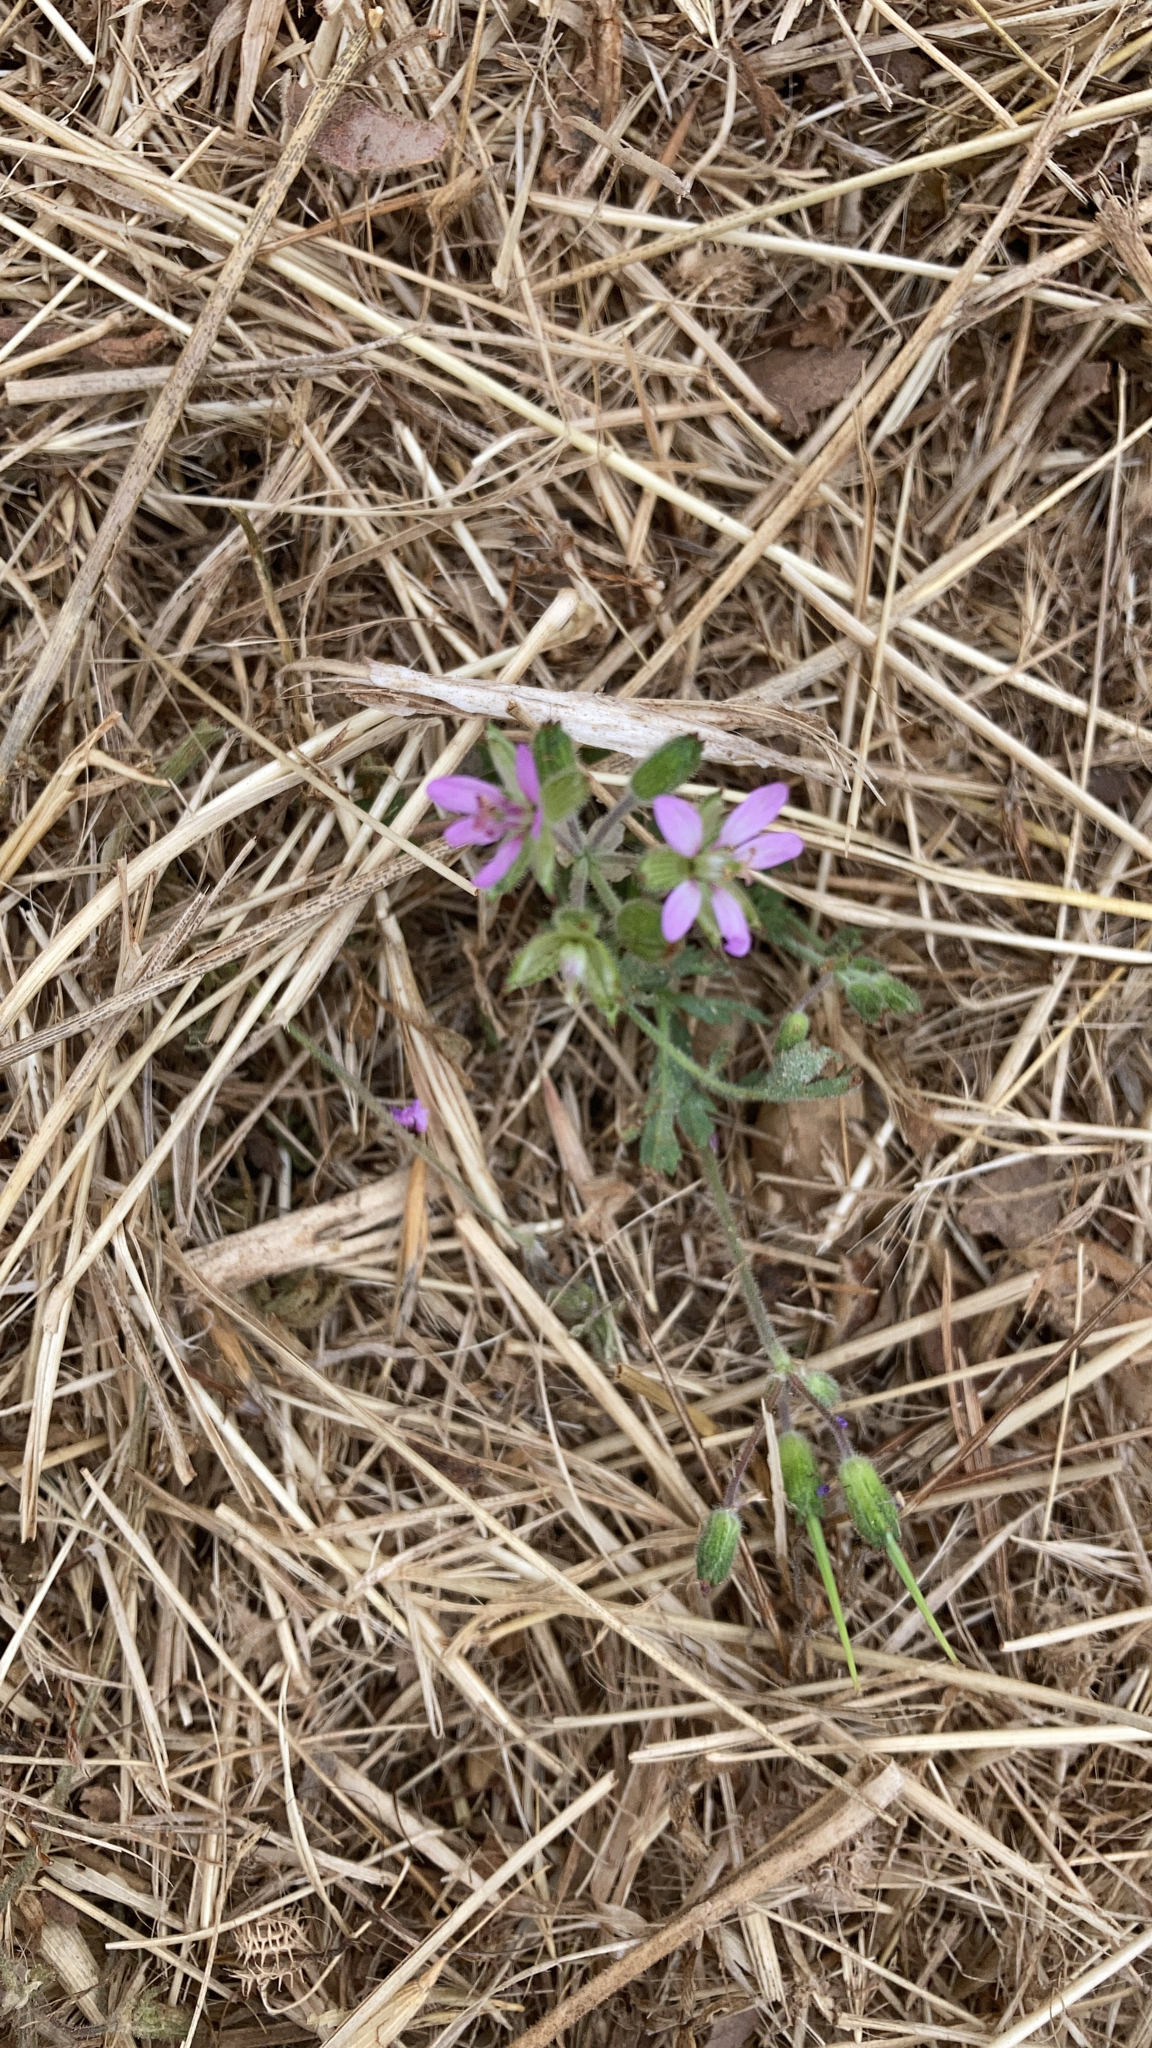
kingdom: Plantae
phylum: Tracheophyta
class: Magnoliopsida
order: Geraniales
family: Geraniaceae
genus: Erodium
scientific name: Erodium moschatum
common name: Musk stork's-bill
